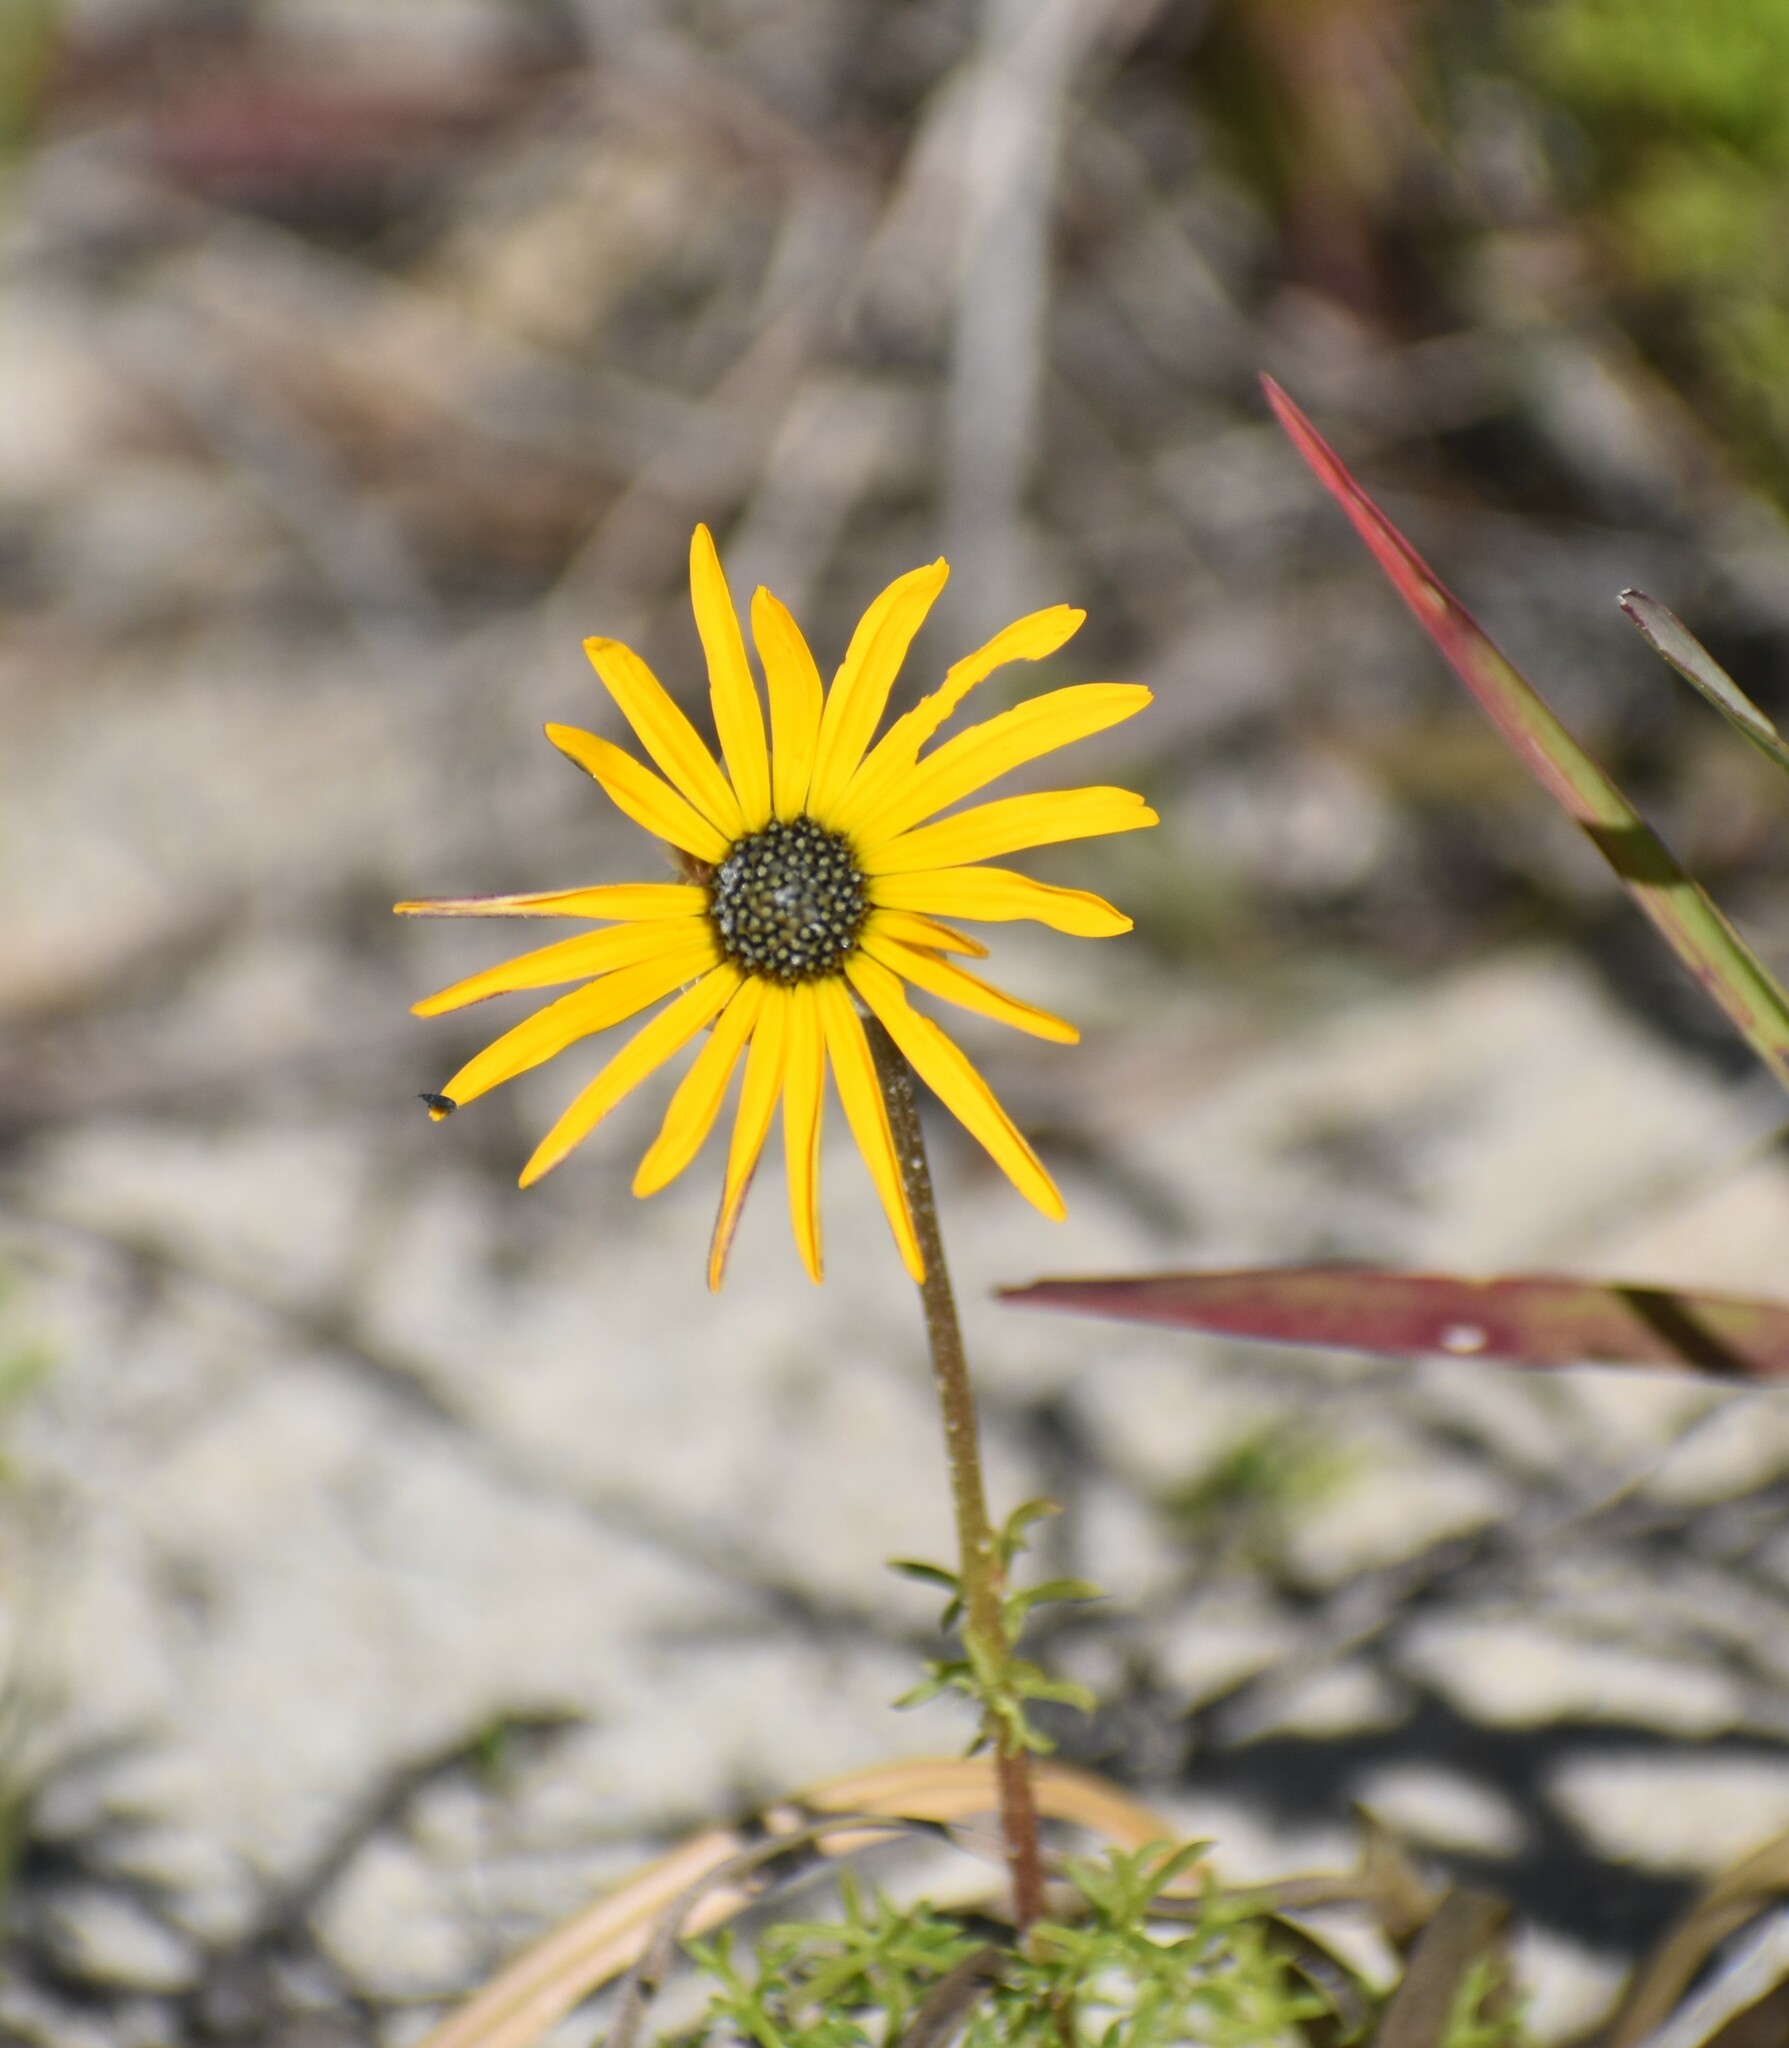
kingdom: Plantae
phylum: Tracheophyta
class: Magnoliopsida
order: Asterales
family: Asteraceae
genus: Ursinia
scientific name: Ursinia chrysanthemoides
